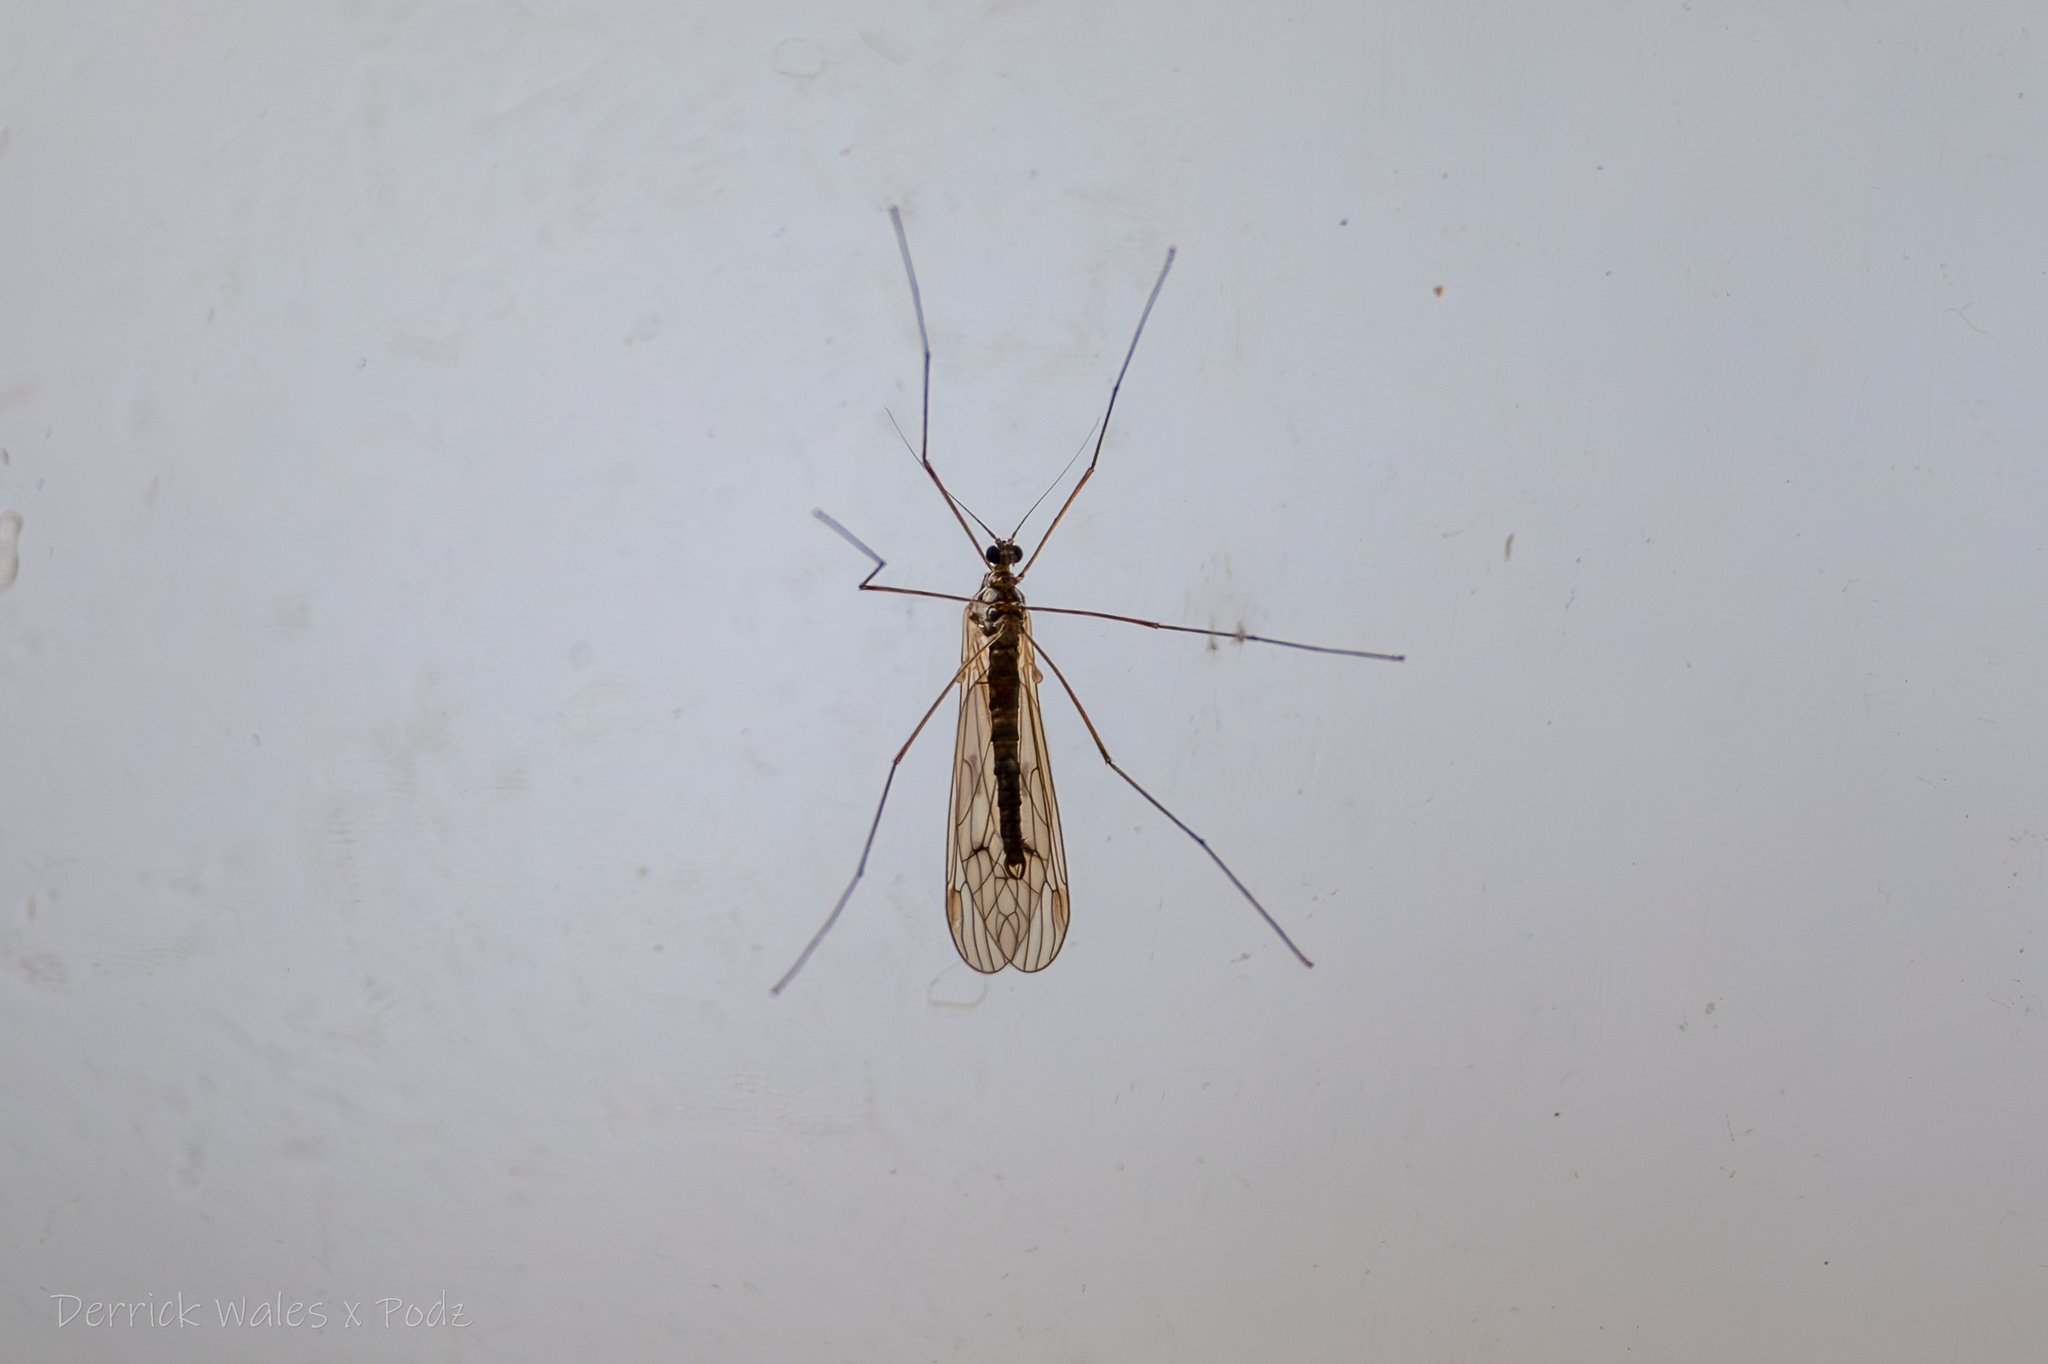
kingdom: Animalia
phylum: Arthropoda
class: Insecta
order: Diptera
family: Trichoceridae
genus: Trichocera
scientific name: Trichocera bimacula
